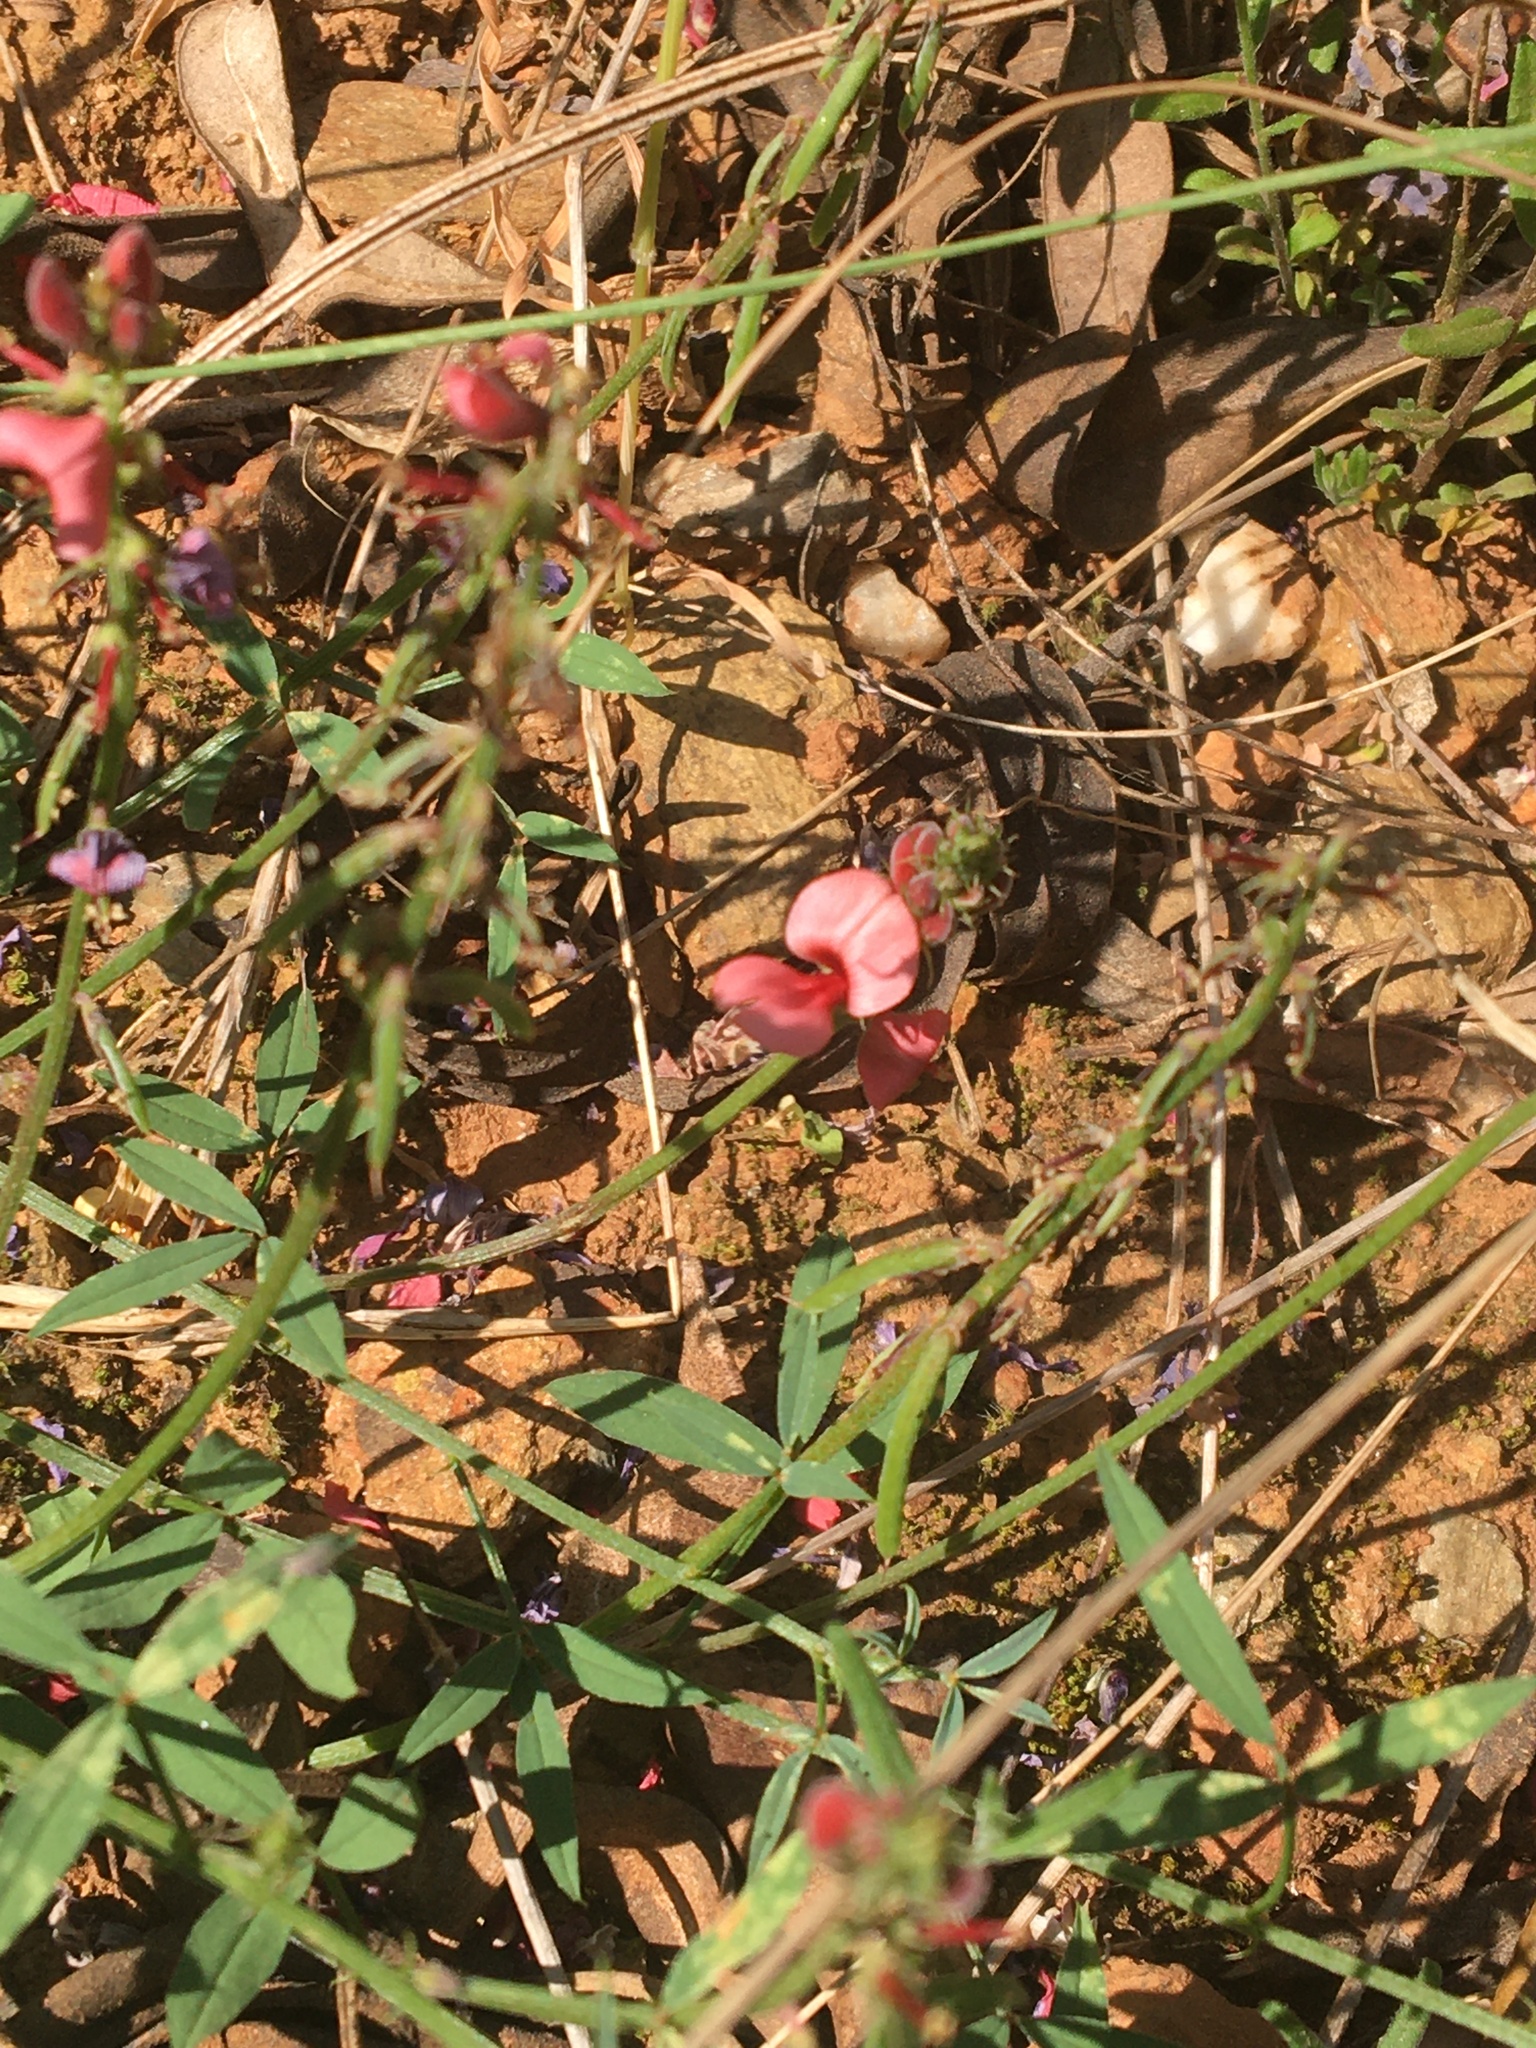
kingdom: Plantae
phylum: Tracheophyta
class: Magnoliopsida
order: Fabales
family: Fabaceae
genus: Indigofera
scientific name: Indigofera heterophylla
